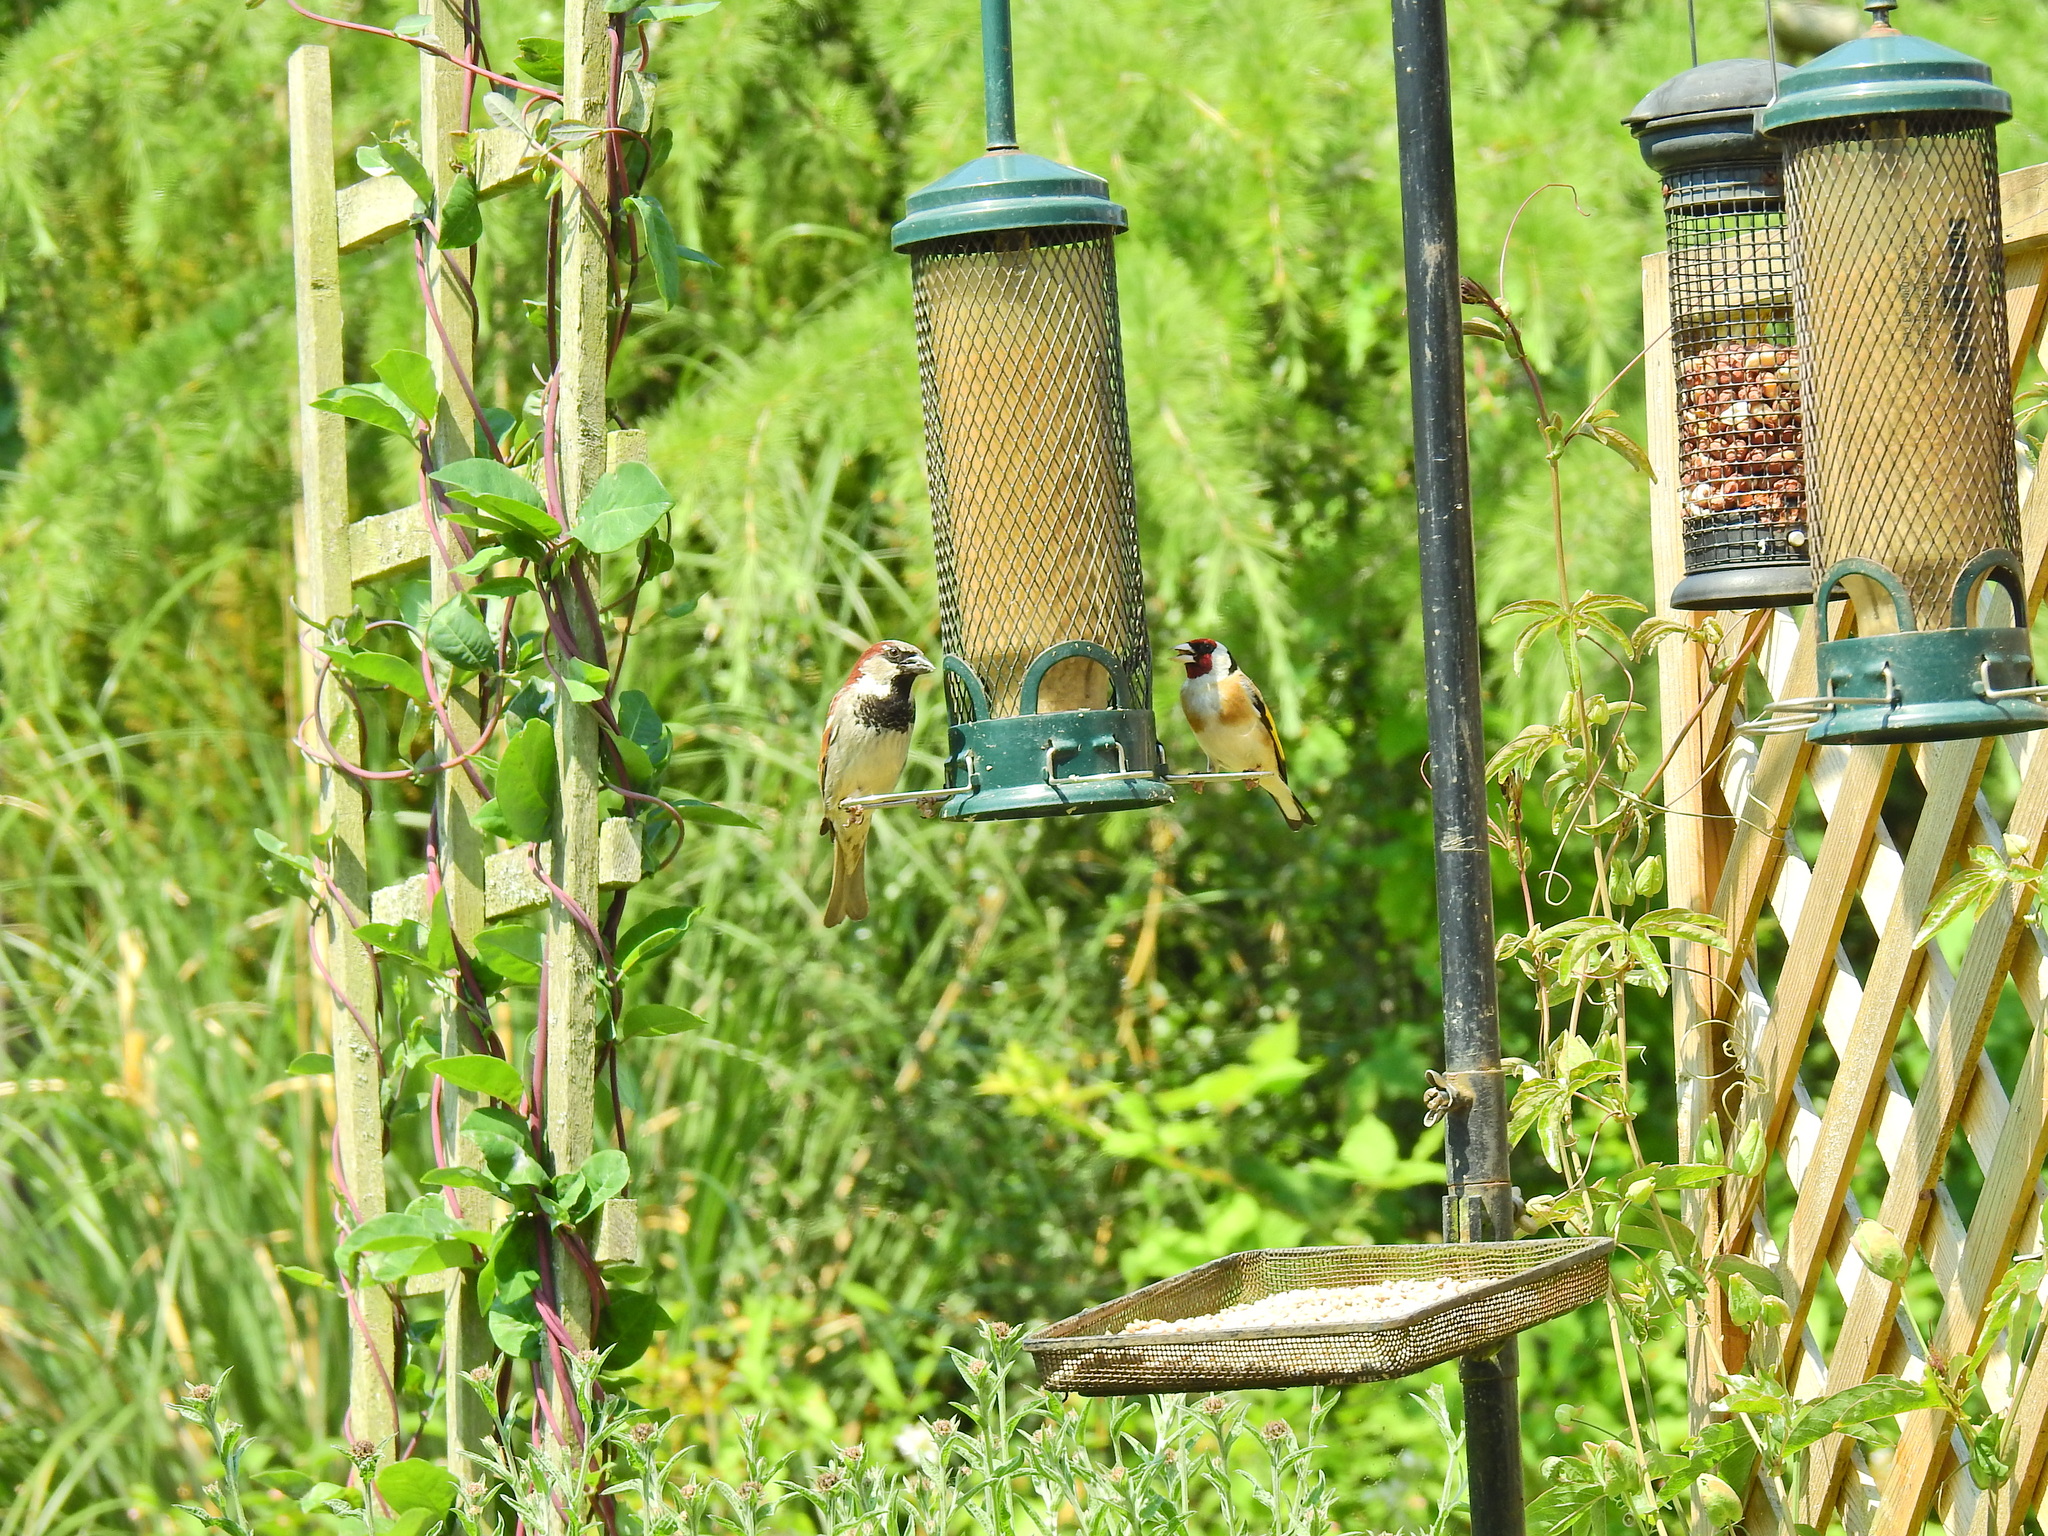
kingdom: Animalia
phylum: Chordata
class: Aves
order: Passeriformes
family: Passeridae
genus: Passer
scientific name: Passer domesticus
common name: House sparrow
